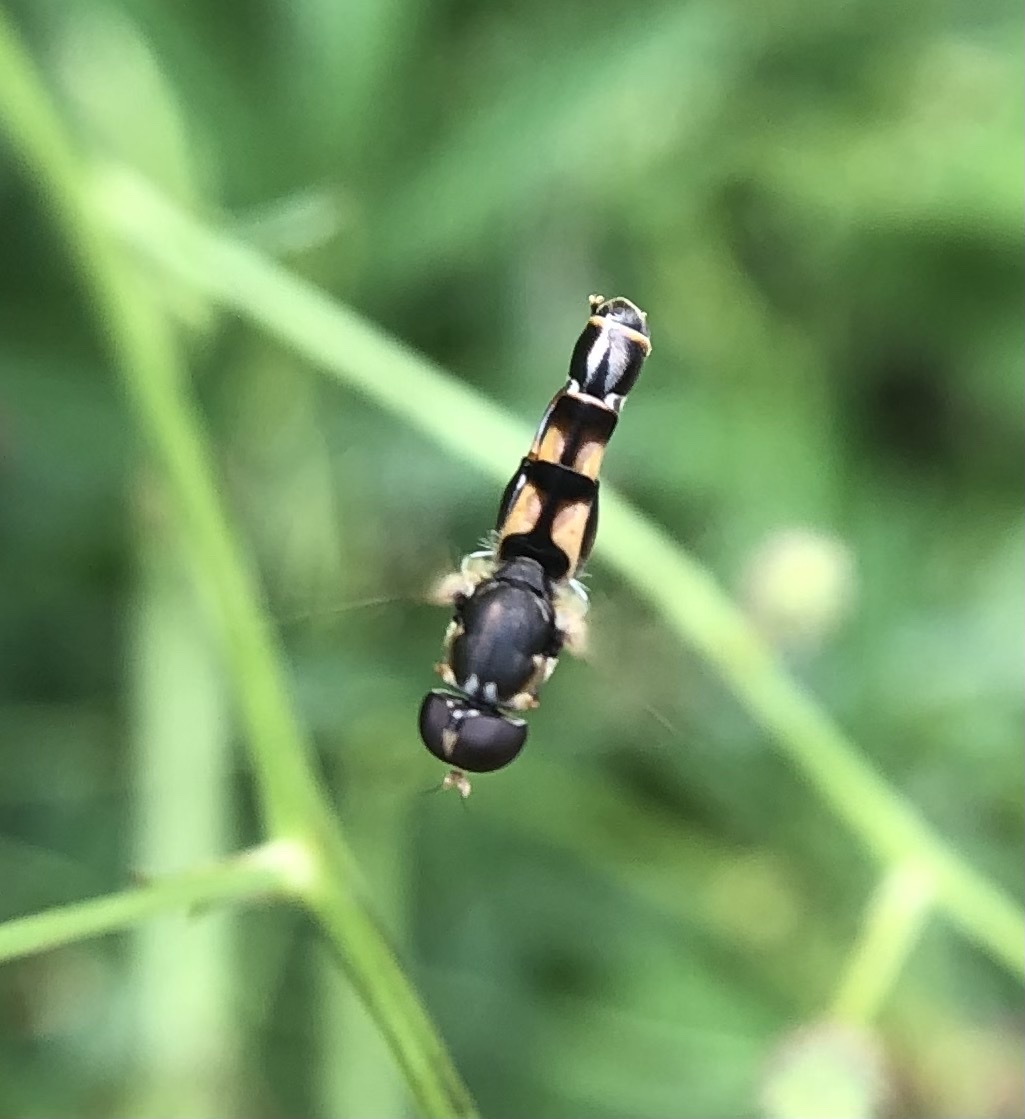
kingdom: Animalia
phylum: Arthropoda
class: Insecta
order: Diptera
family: Syrphidae
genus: Syritta
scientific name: Syritta pipiens
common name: Hover fly
